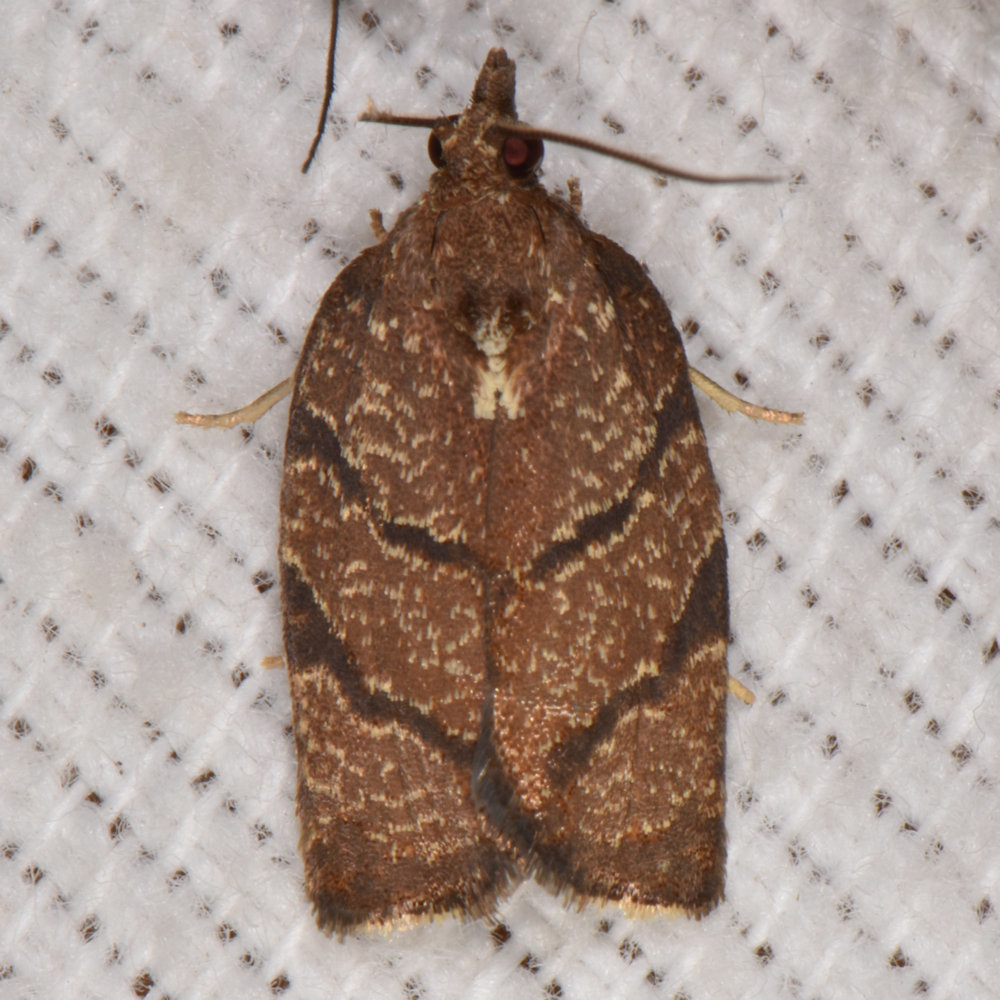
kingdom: Animalia
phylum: Arthropoda
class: Insecta
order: Lepidoptera
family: Tortricidae
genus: Argyrotaenia
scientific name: Argyrotaenia juglandana
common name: Hickory leafroller moth
